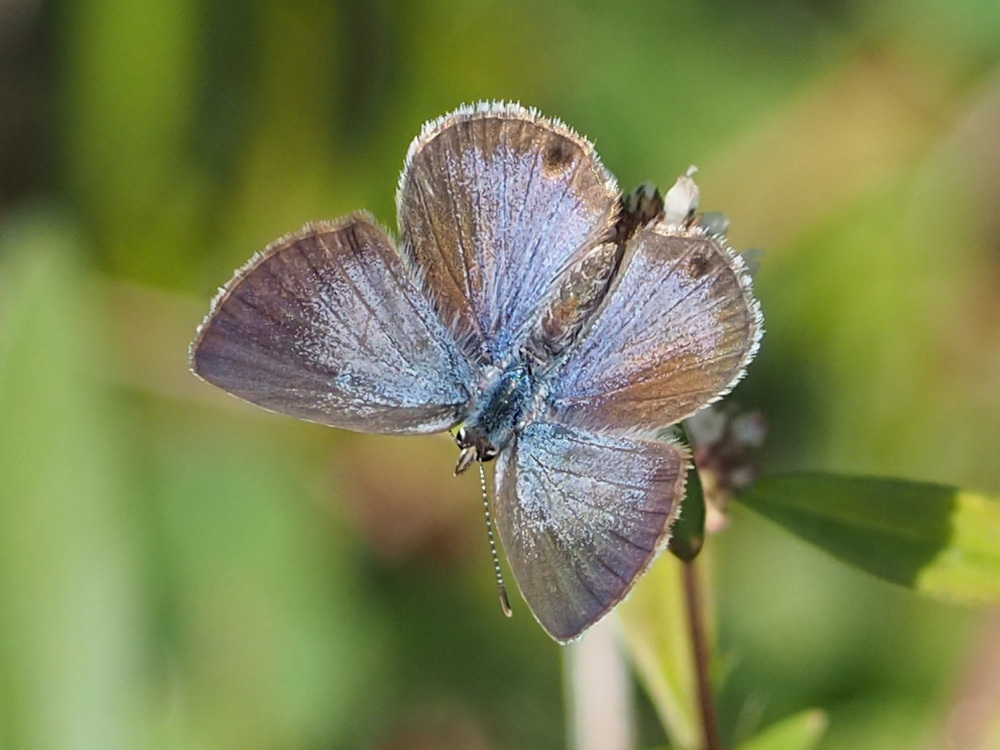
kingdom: Animalia
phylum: Arthropoda
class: Insecta
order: Lepidoptera
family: Lycaenidae
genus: Hemiargus
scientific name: Hemiargus ceraunus
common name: Ceraunus blue
